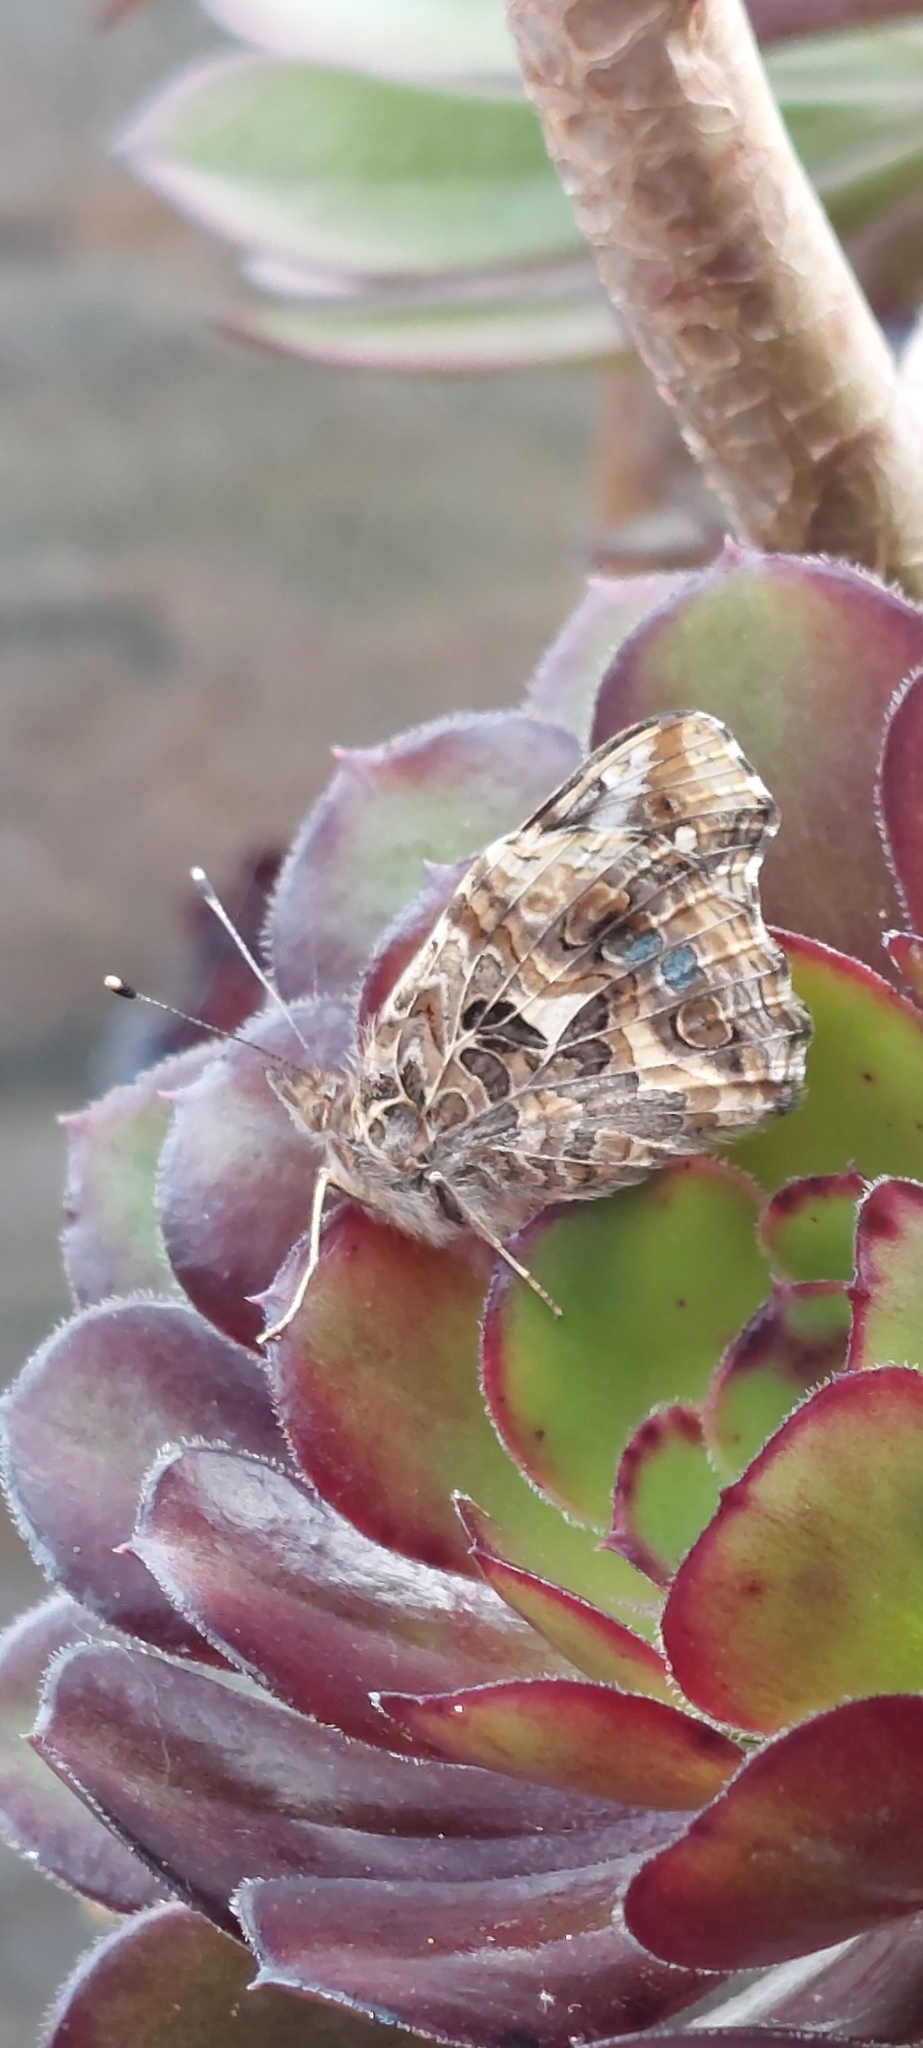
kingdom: Animalia
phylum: Arthropoda
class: Insecta
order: Lepidoptera
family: Nymphalidae
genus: Vanessa
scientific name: Vanessa carye
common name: Subtropical lady
